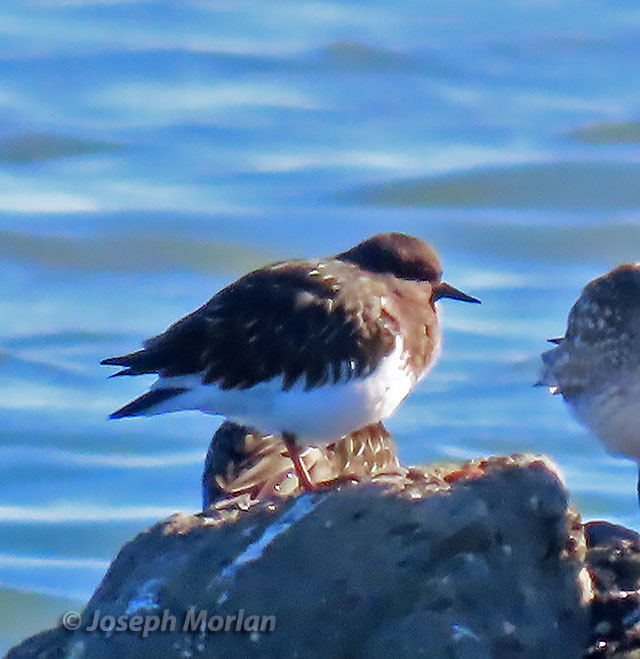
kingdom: Animalia
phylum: Chordata
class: Aves
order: Charadriiformes
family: Scolopacidae
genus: Arenaria
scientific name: Arenaria melanocephala
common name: Black turnstone
